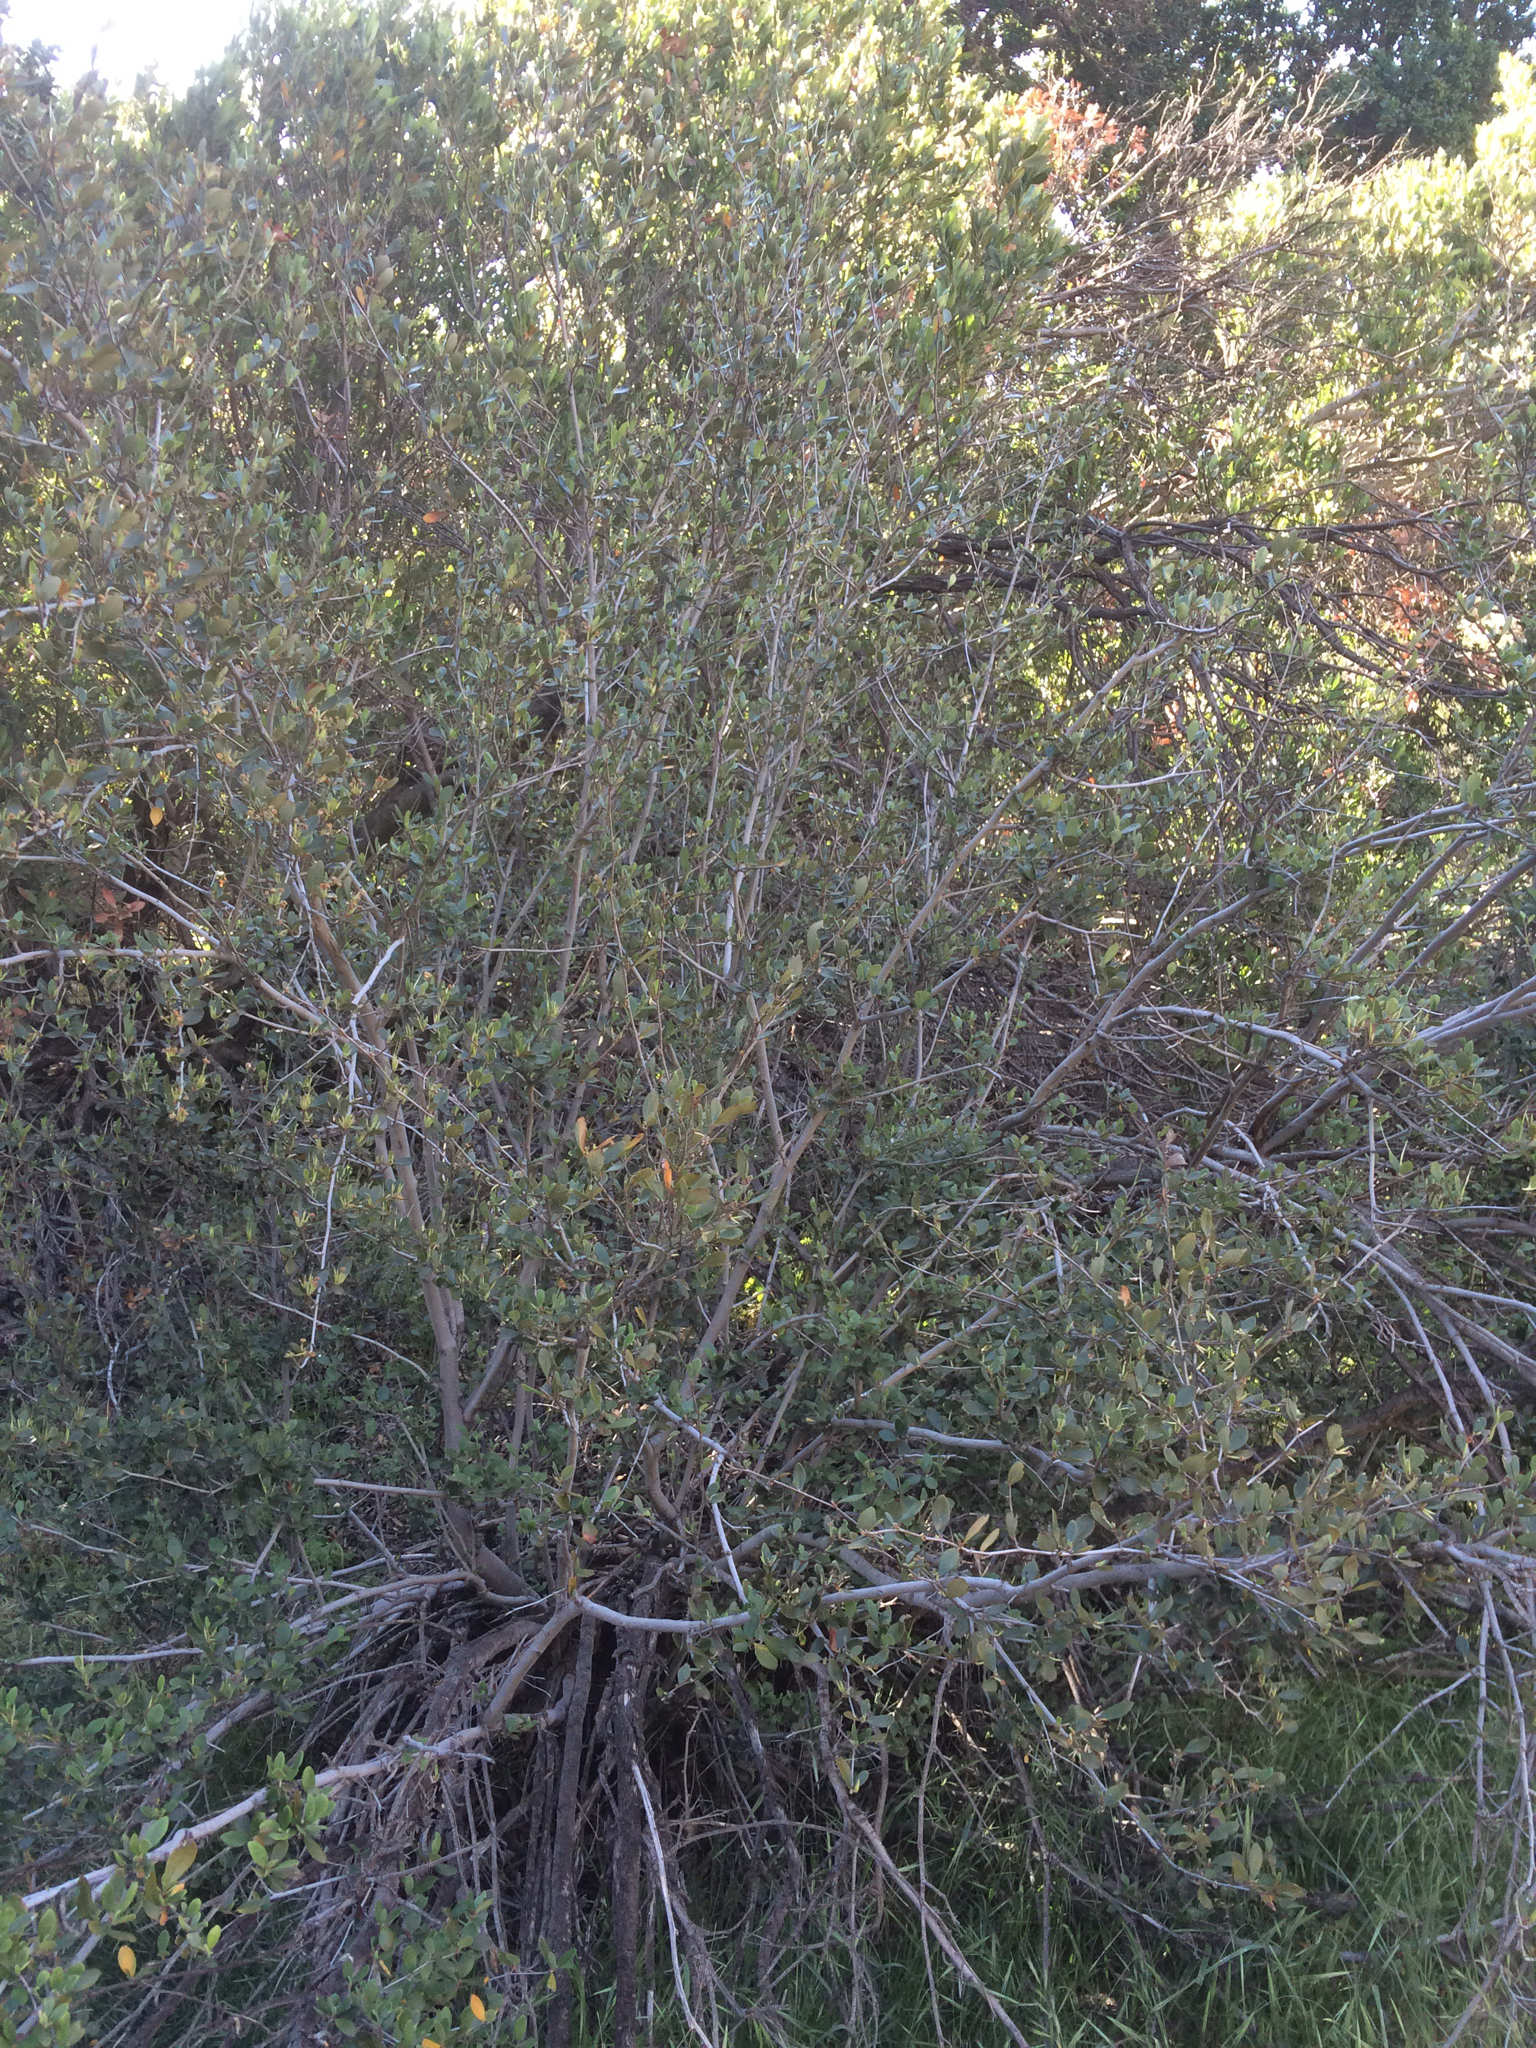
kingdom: Plantae
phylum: Tracheophyta
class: Magnoliopsida
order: Rosales
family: Rosaceae
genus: Cercocarpus
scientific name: Cercocarpus betuloides
